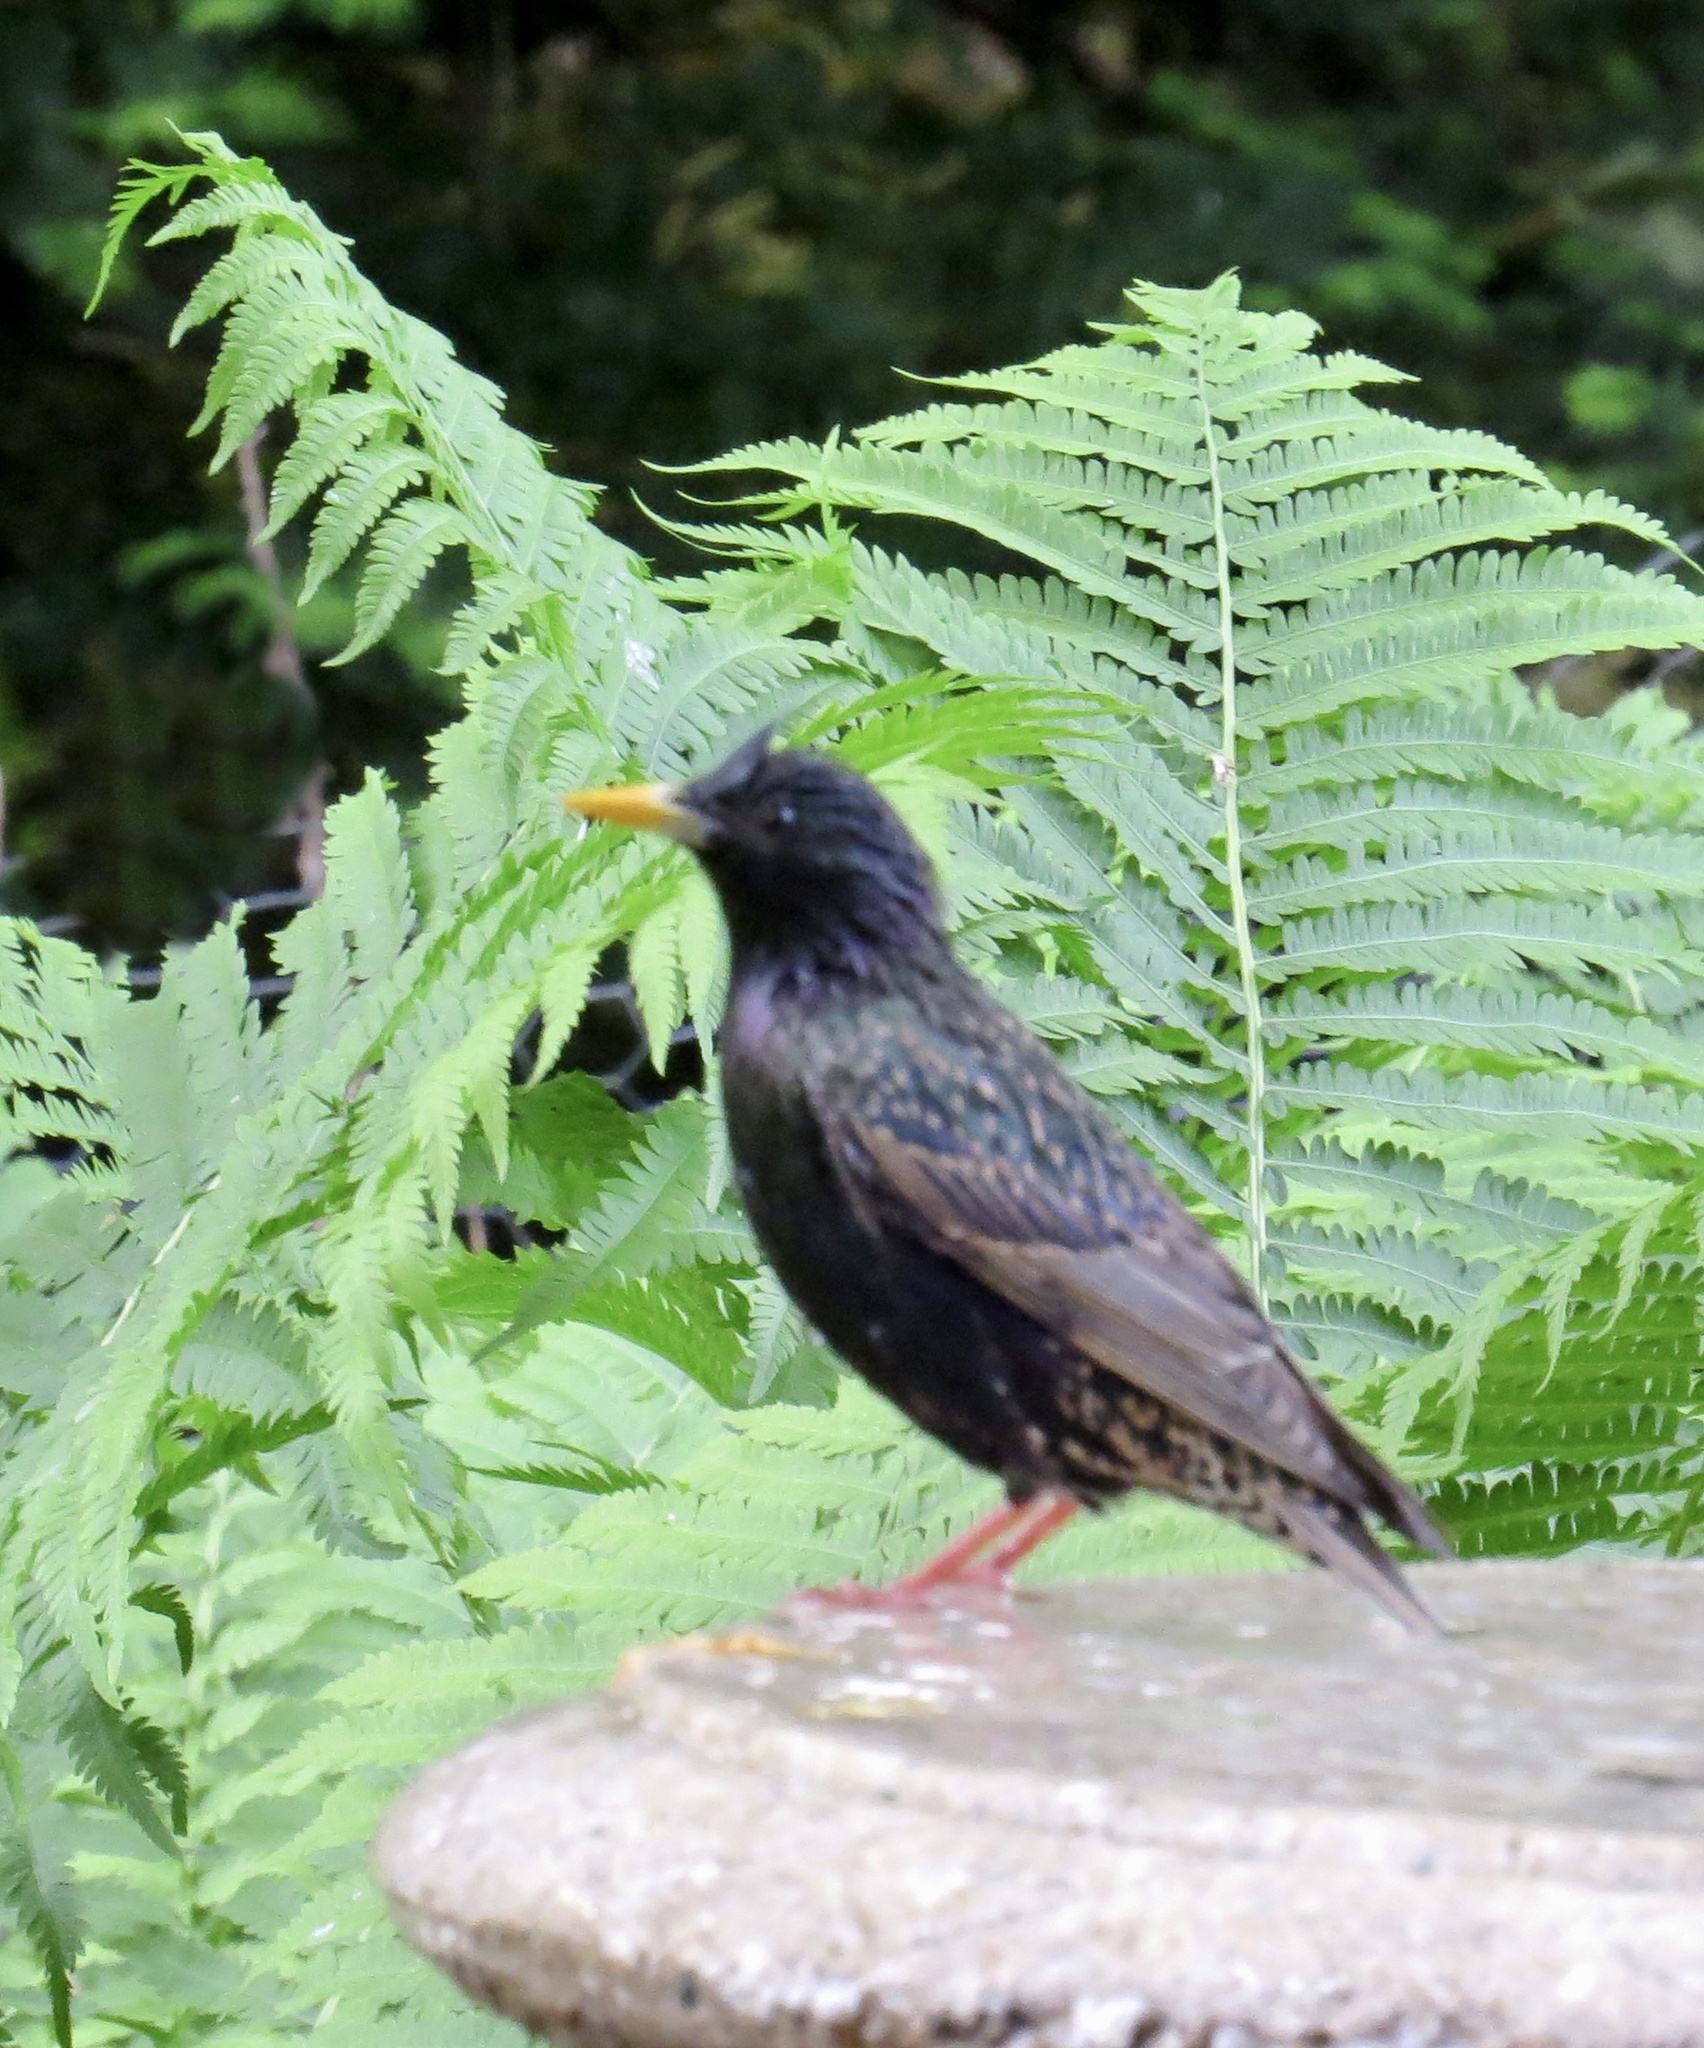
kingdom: Animalia
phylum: Chordata
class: Aves
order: Passeriformes
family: Sturnidae
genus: Sturnus
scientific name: Sturnus vulgaris
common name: Common starling
